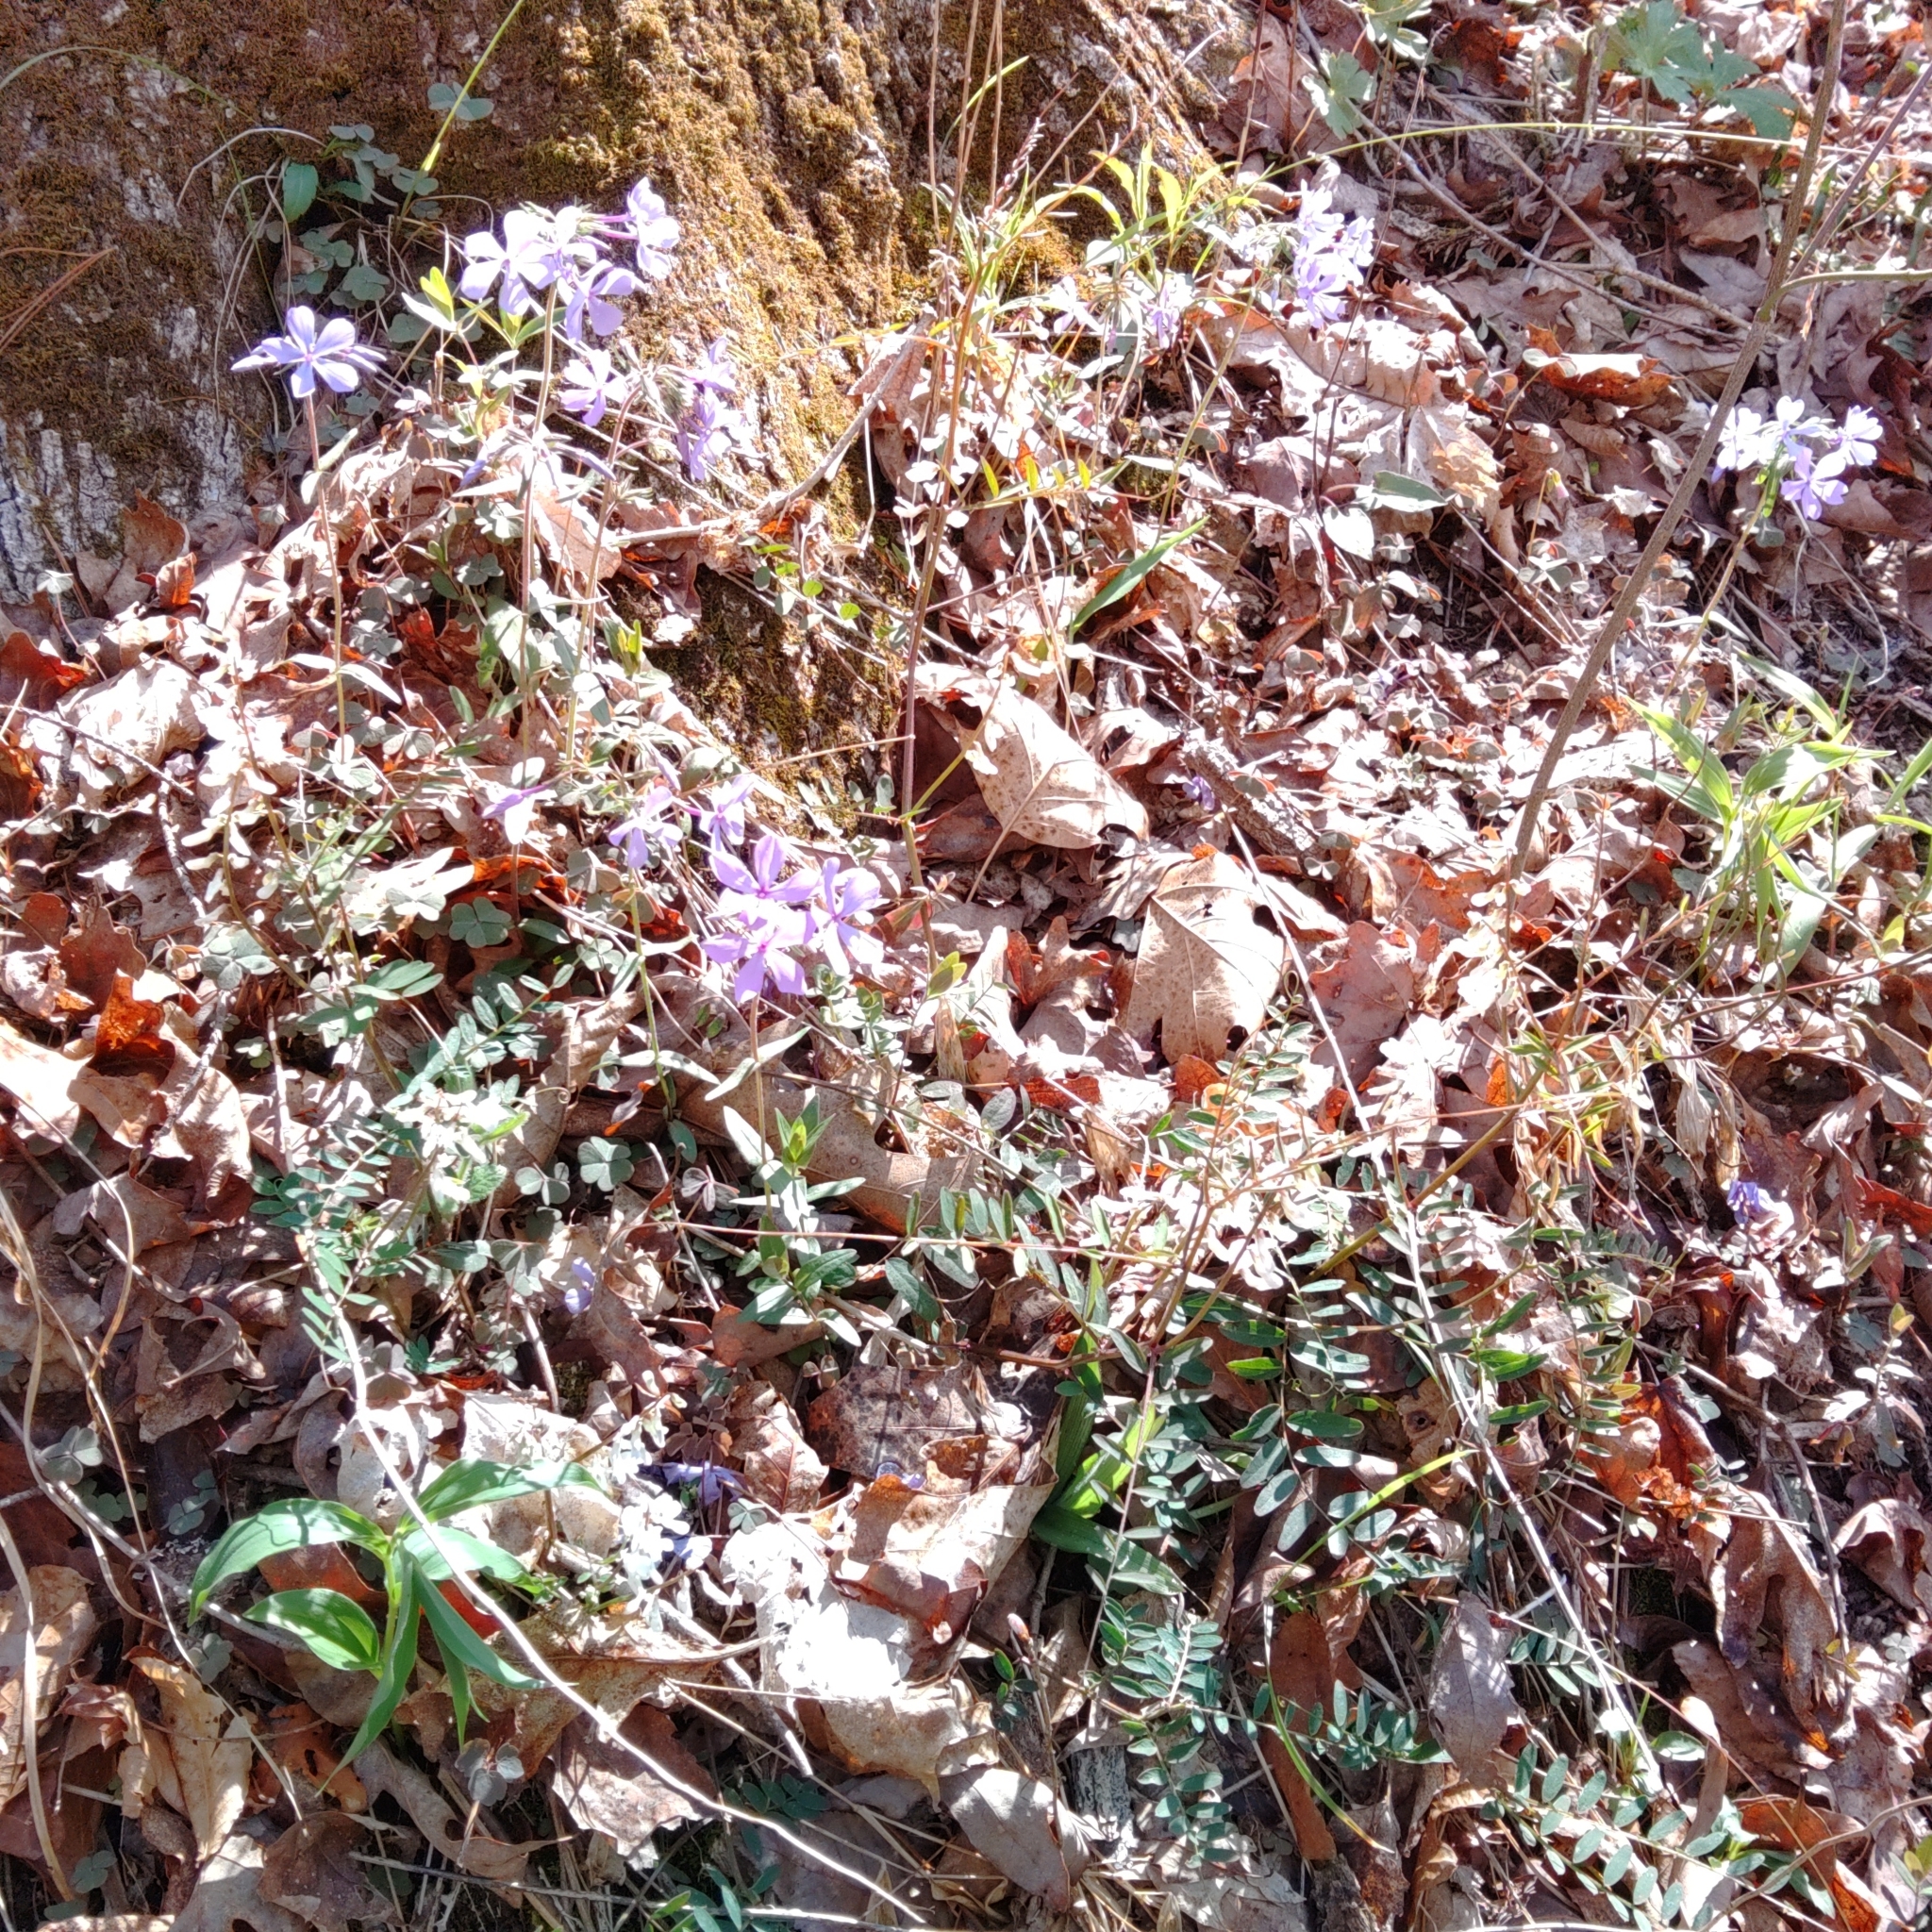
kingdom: Plantae
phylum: Tracheophyta
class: Magnoliopsida
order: Ericales
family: Polemoniaceae
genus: Phlox
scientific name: Phlox divaricata
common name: Blue phlox
